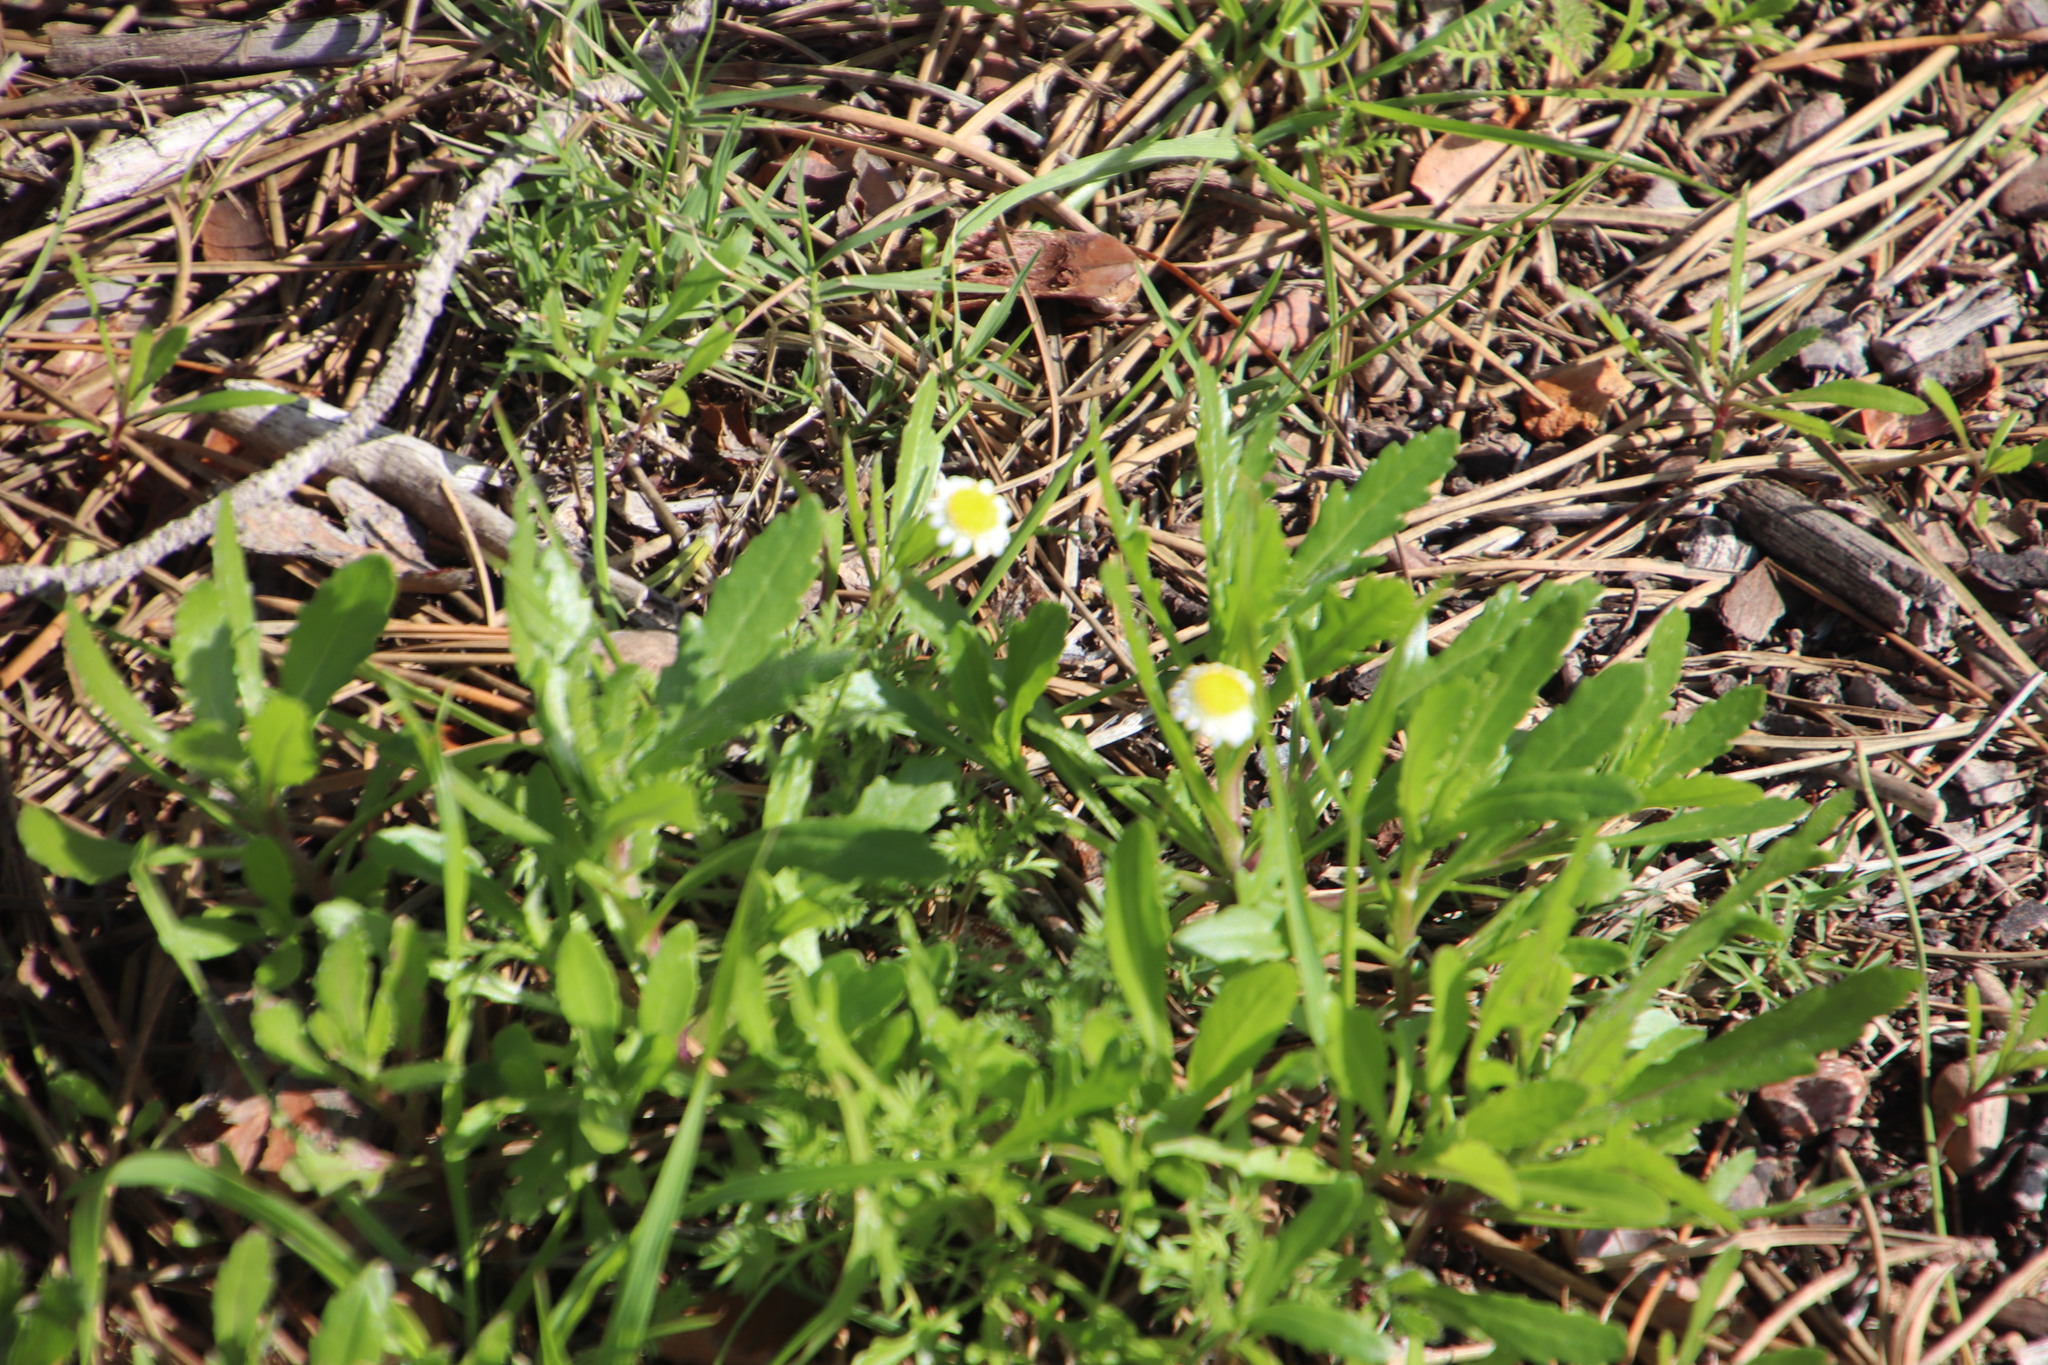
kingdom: Plantae
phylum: Tracheophyta
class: Magnoliopsida
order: Asterales
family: Asteraceae
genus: Cotula
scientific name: Cotula turbinata
